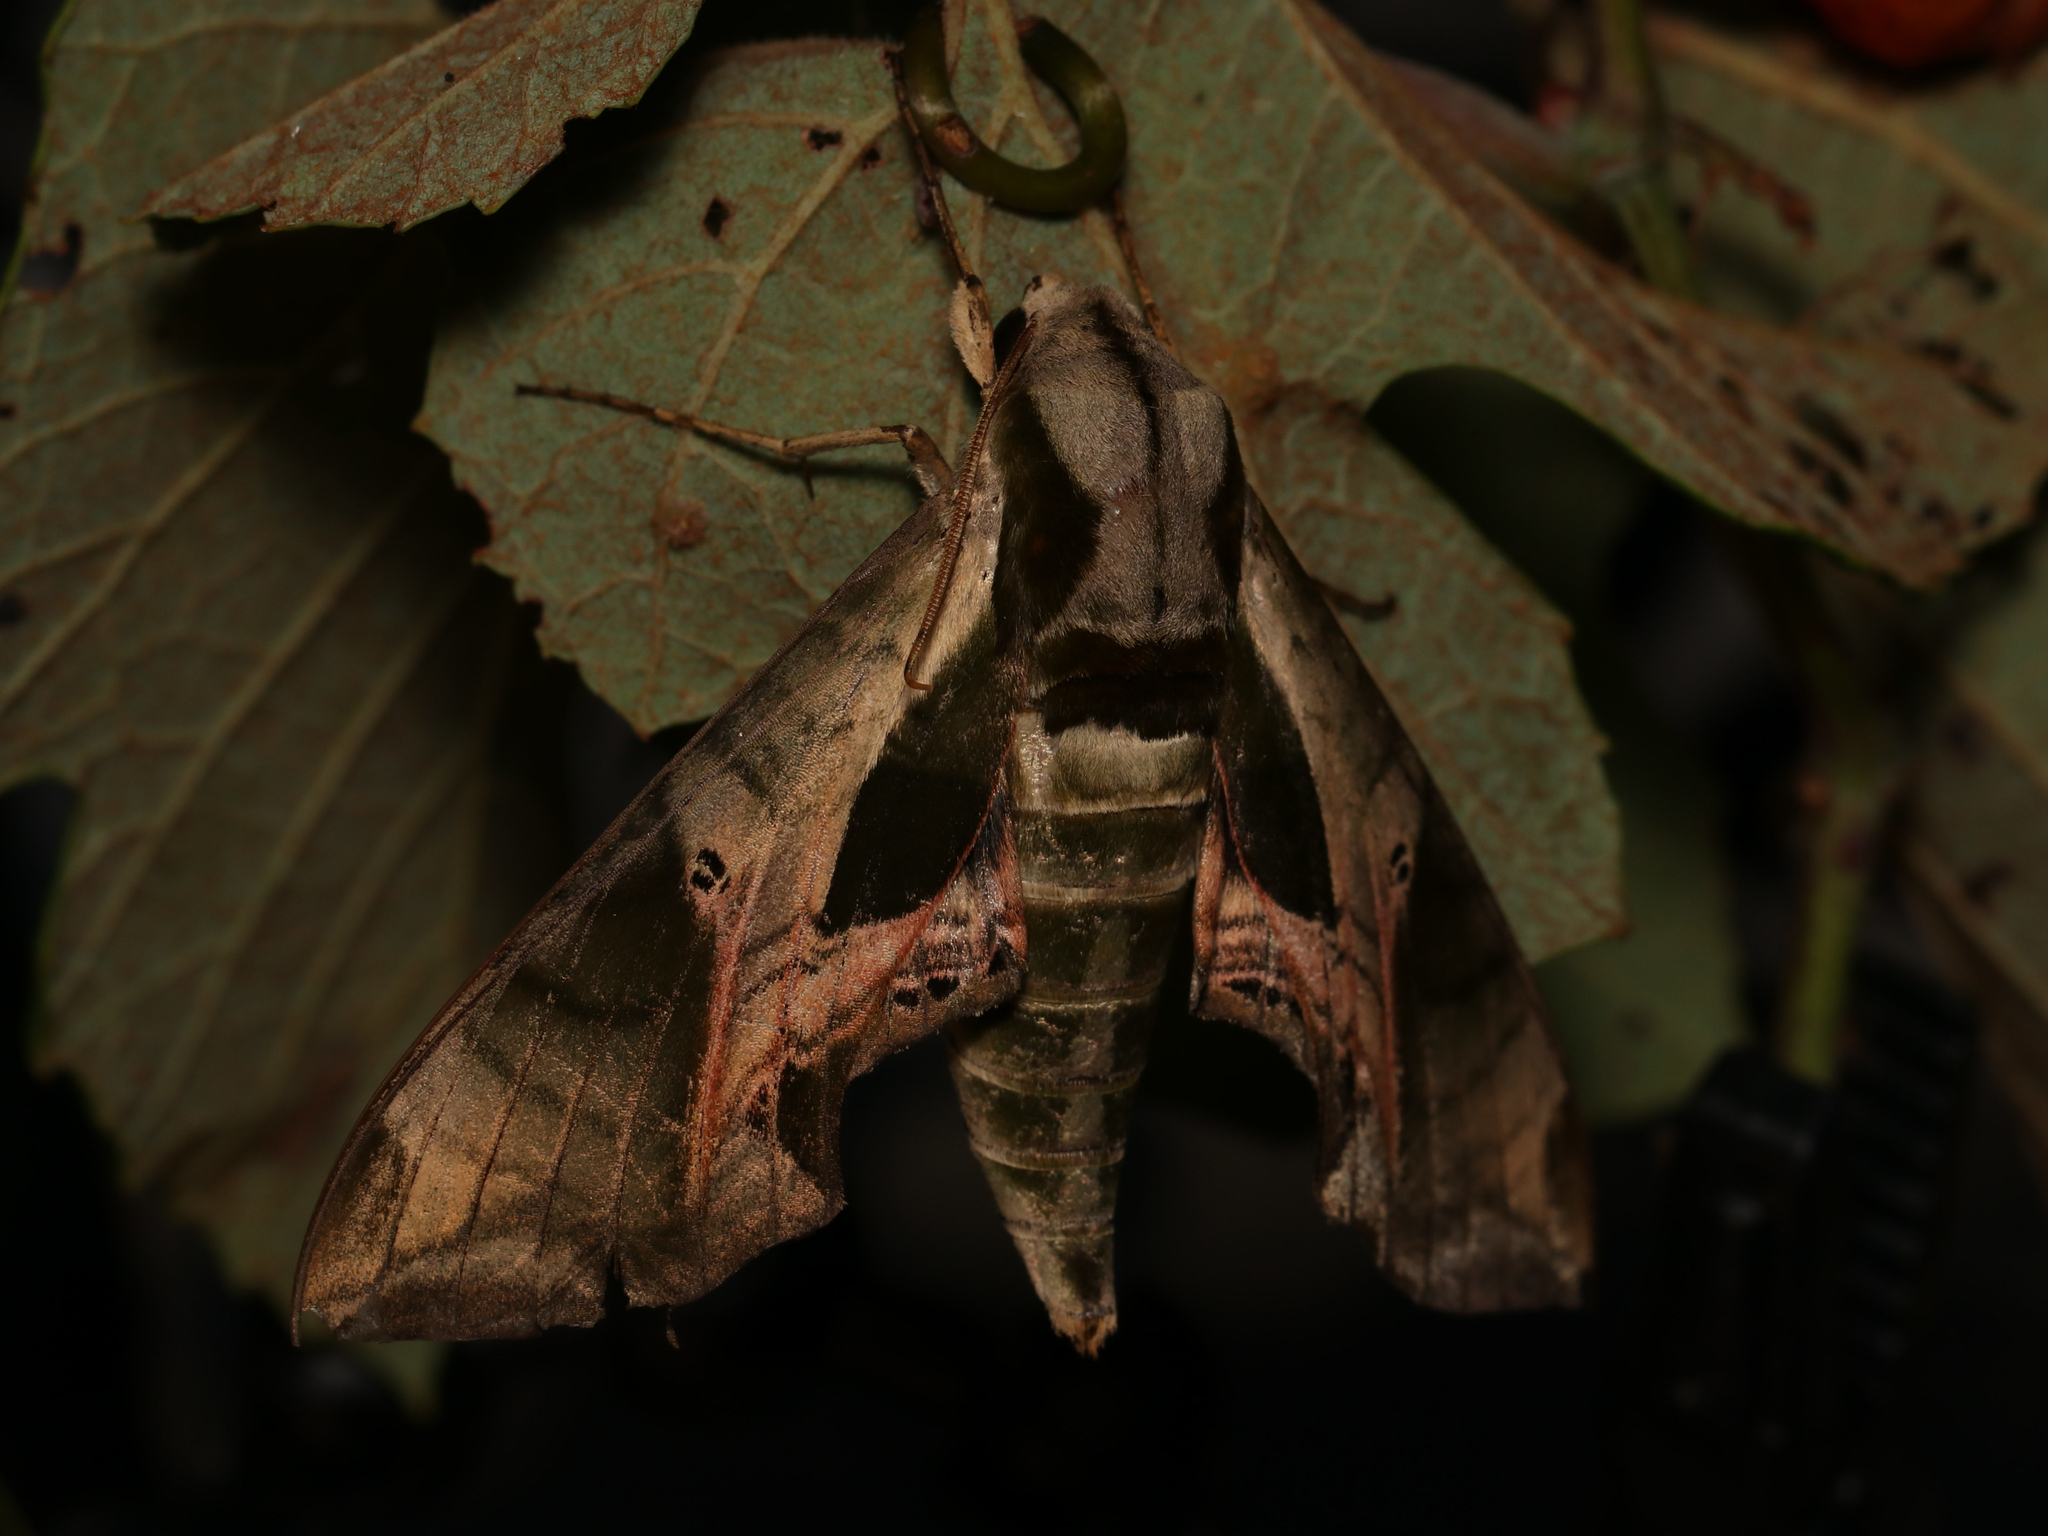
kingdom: Animalia
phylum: Arthropoda
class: Insecta
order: Lepidoptera
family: Sphingidae
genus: Eumorpha
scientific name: Eumorpha pandorus
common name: Pandora sphinx
